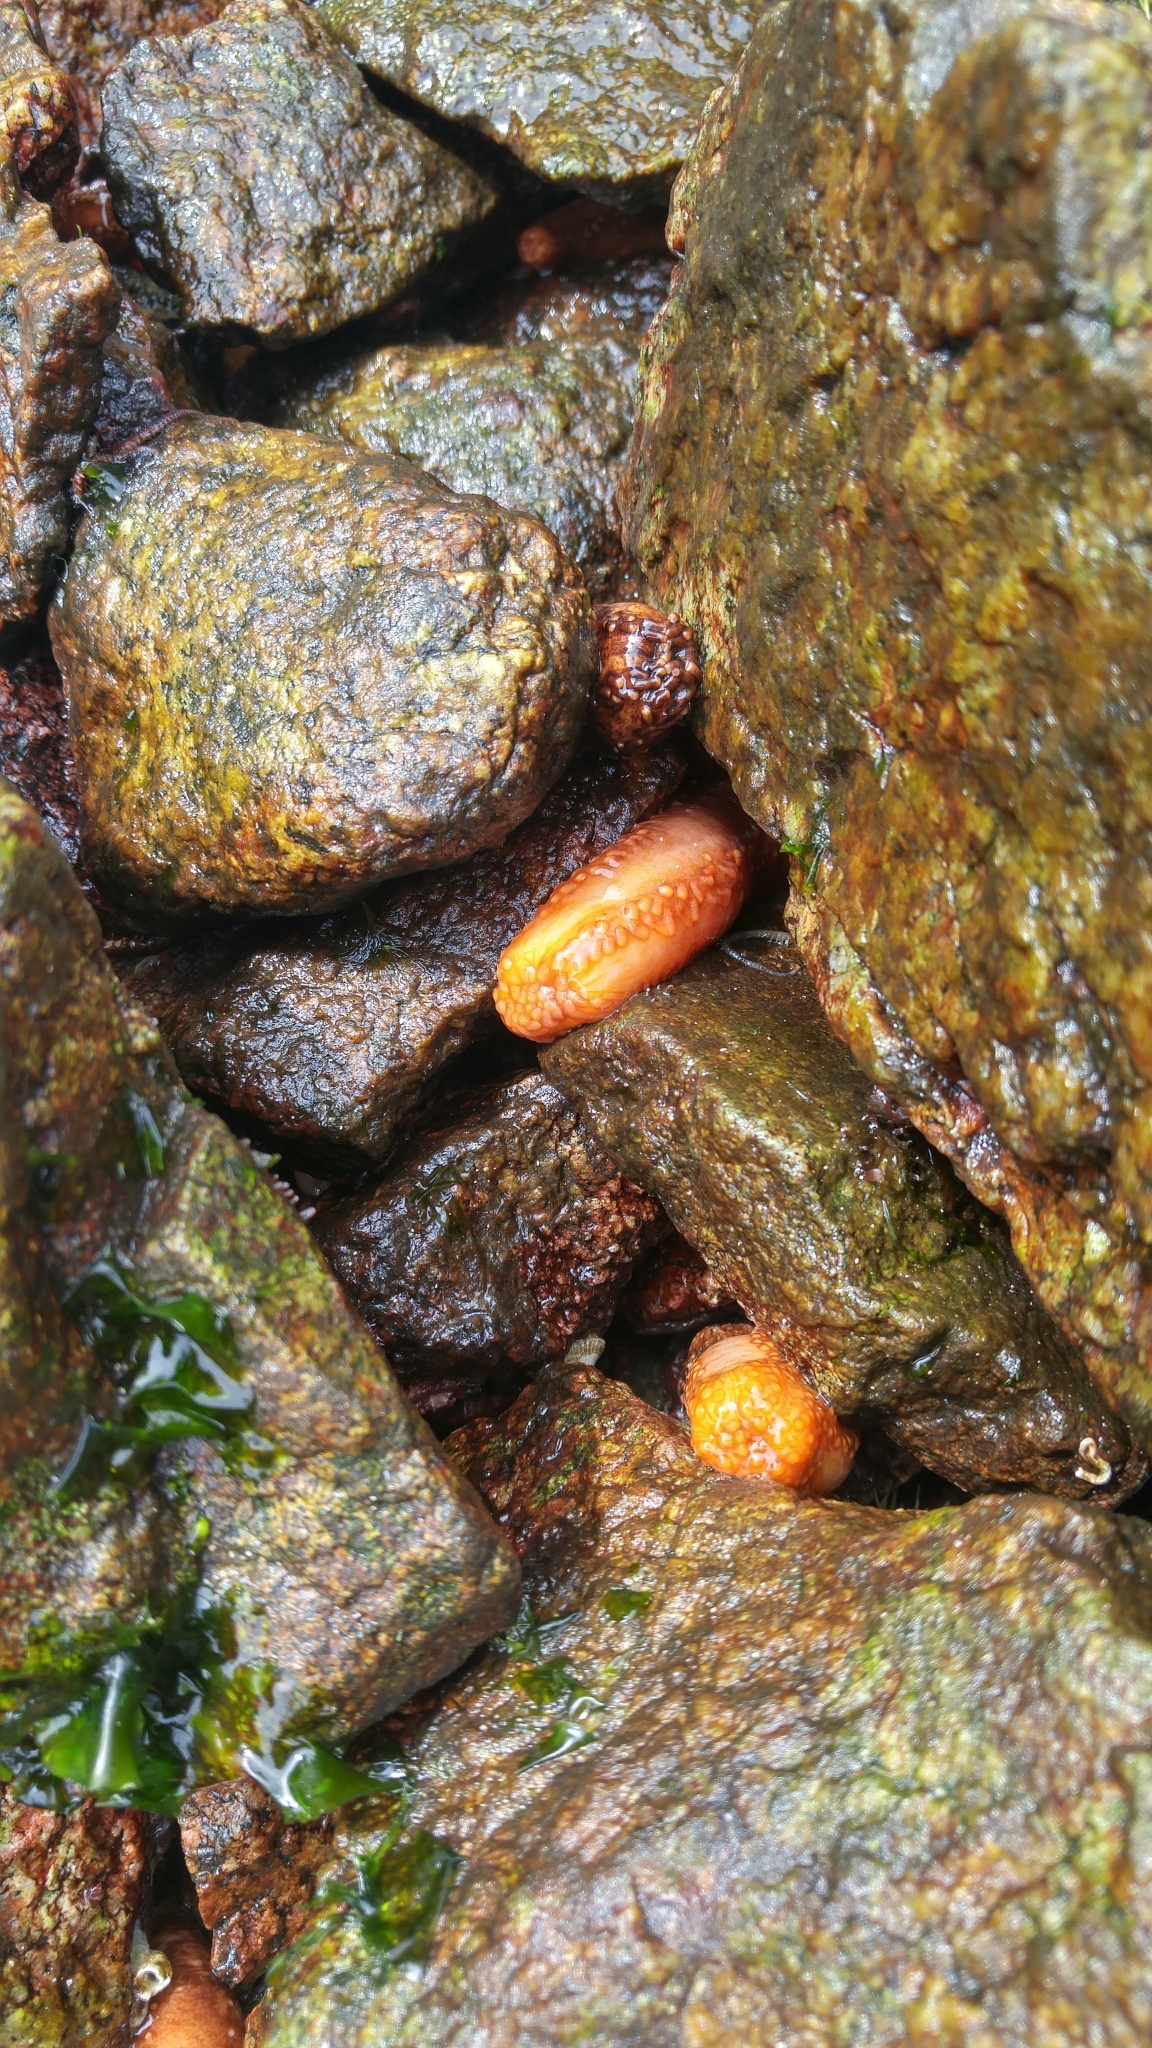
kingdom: Animalia
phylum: Echinodermata
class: Holothuroidea
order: Dendrochirotida
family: Cucumariidae
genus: Cucumaria
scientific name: Cucumaria miniata
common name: Orange sea cucumber
